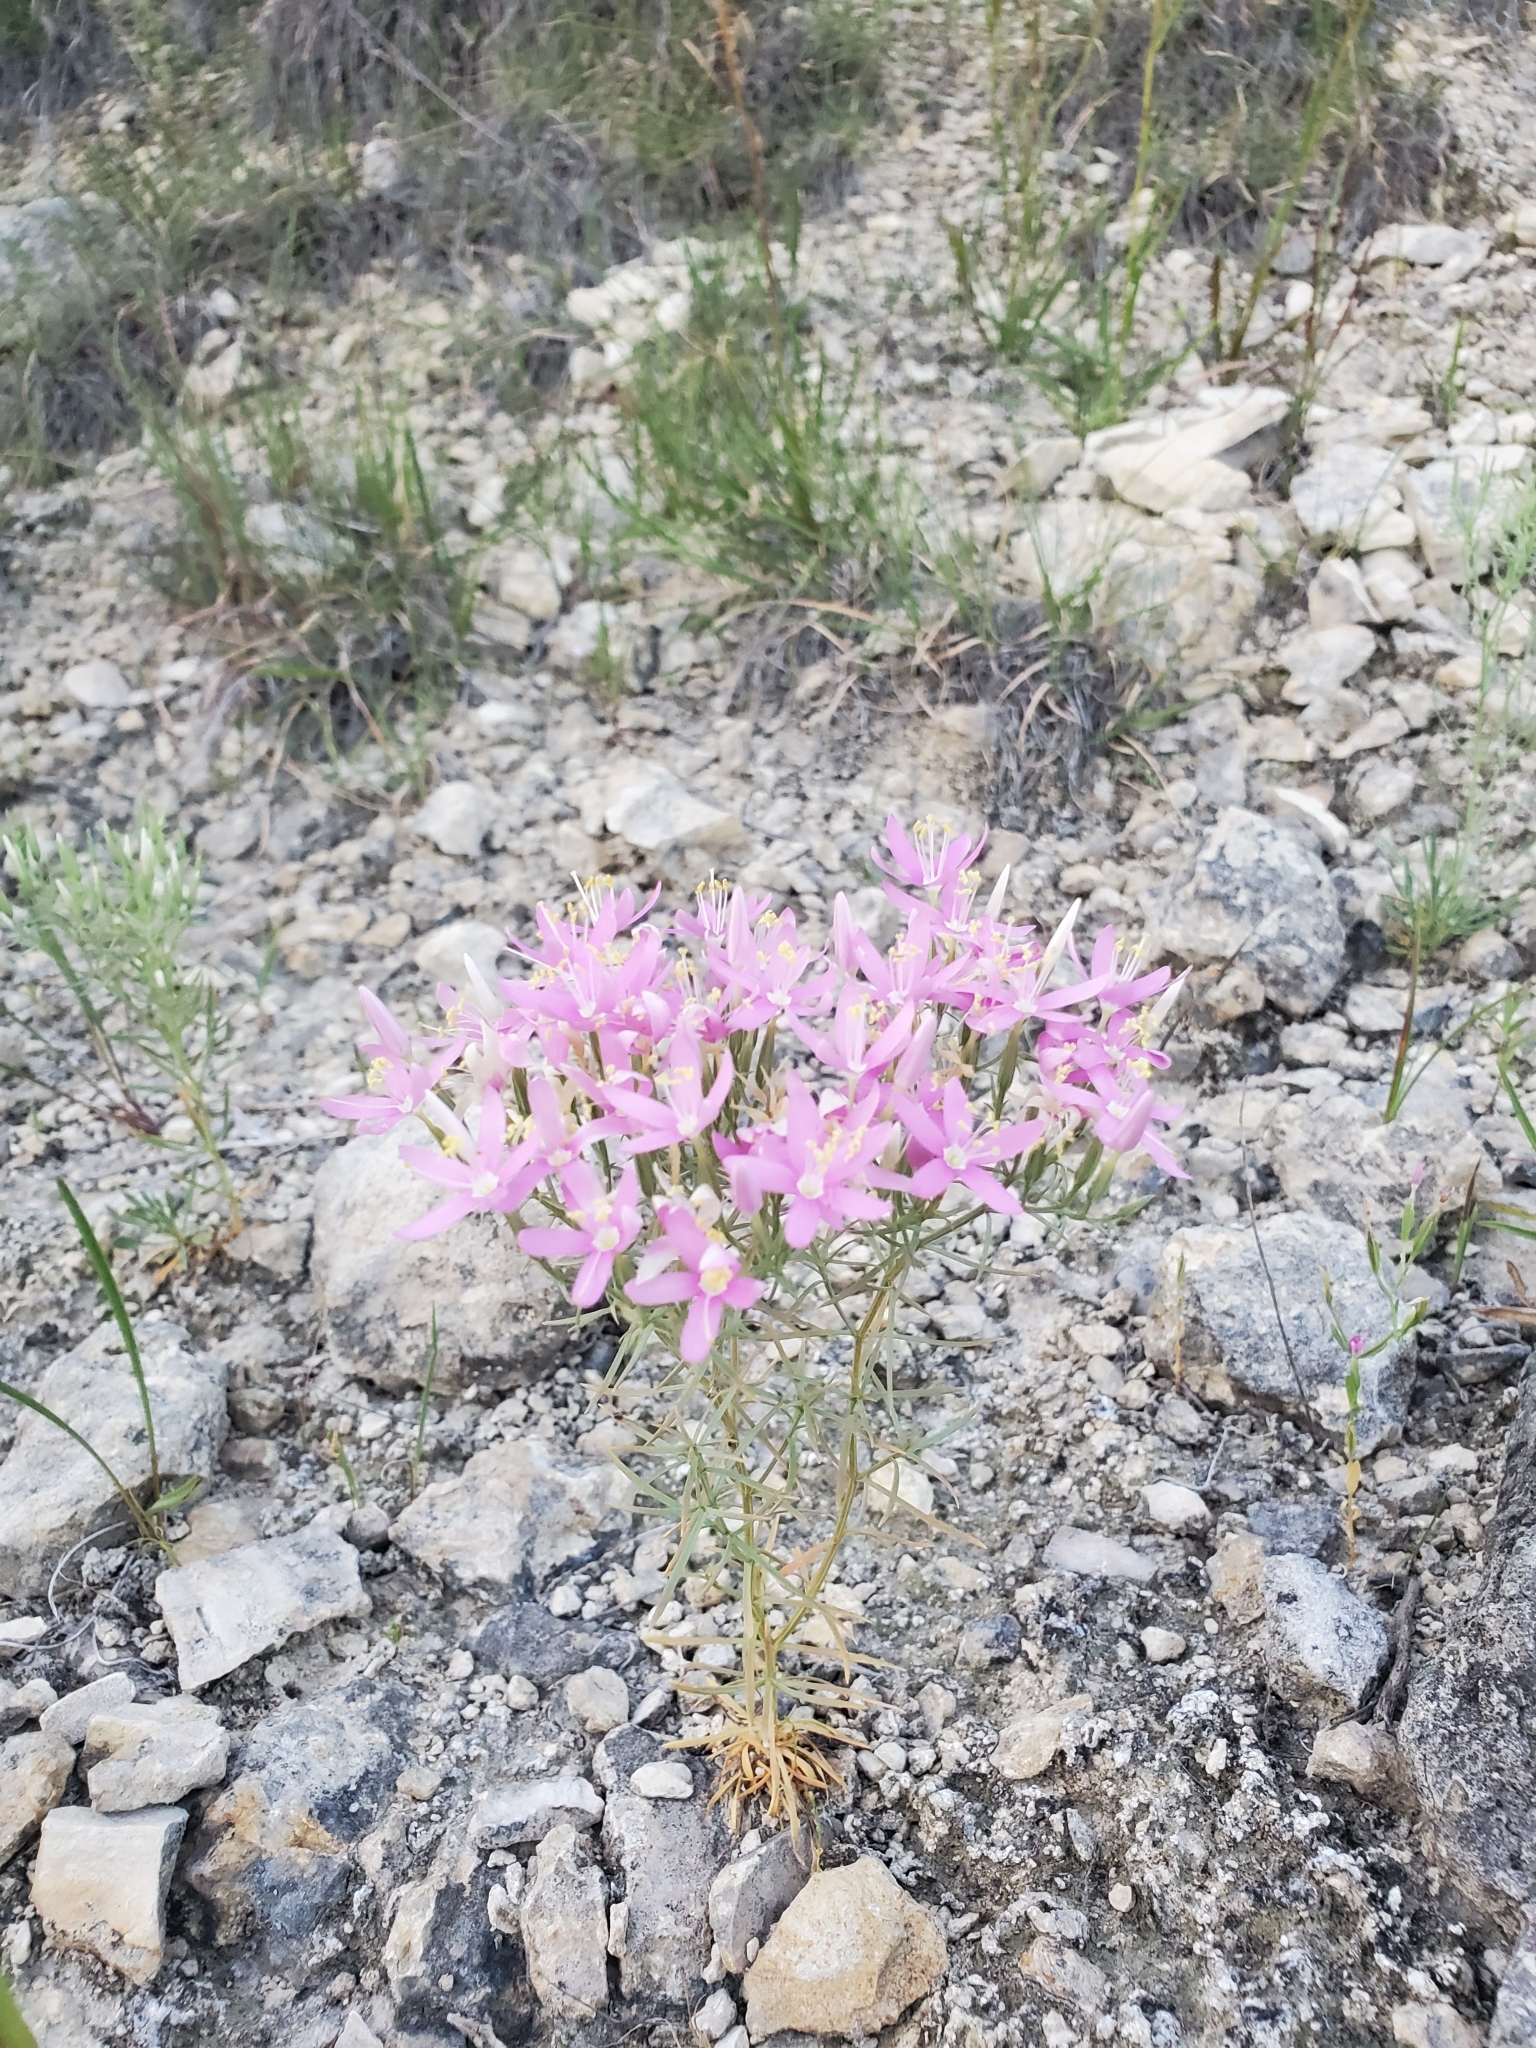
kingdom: Plantae
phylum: Tracheophyta
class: Magnoliopsida
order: Gentianales
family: Gentianaceae
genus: Zeltnera
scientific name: Zeltnera beyrichii
